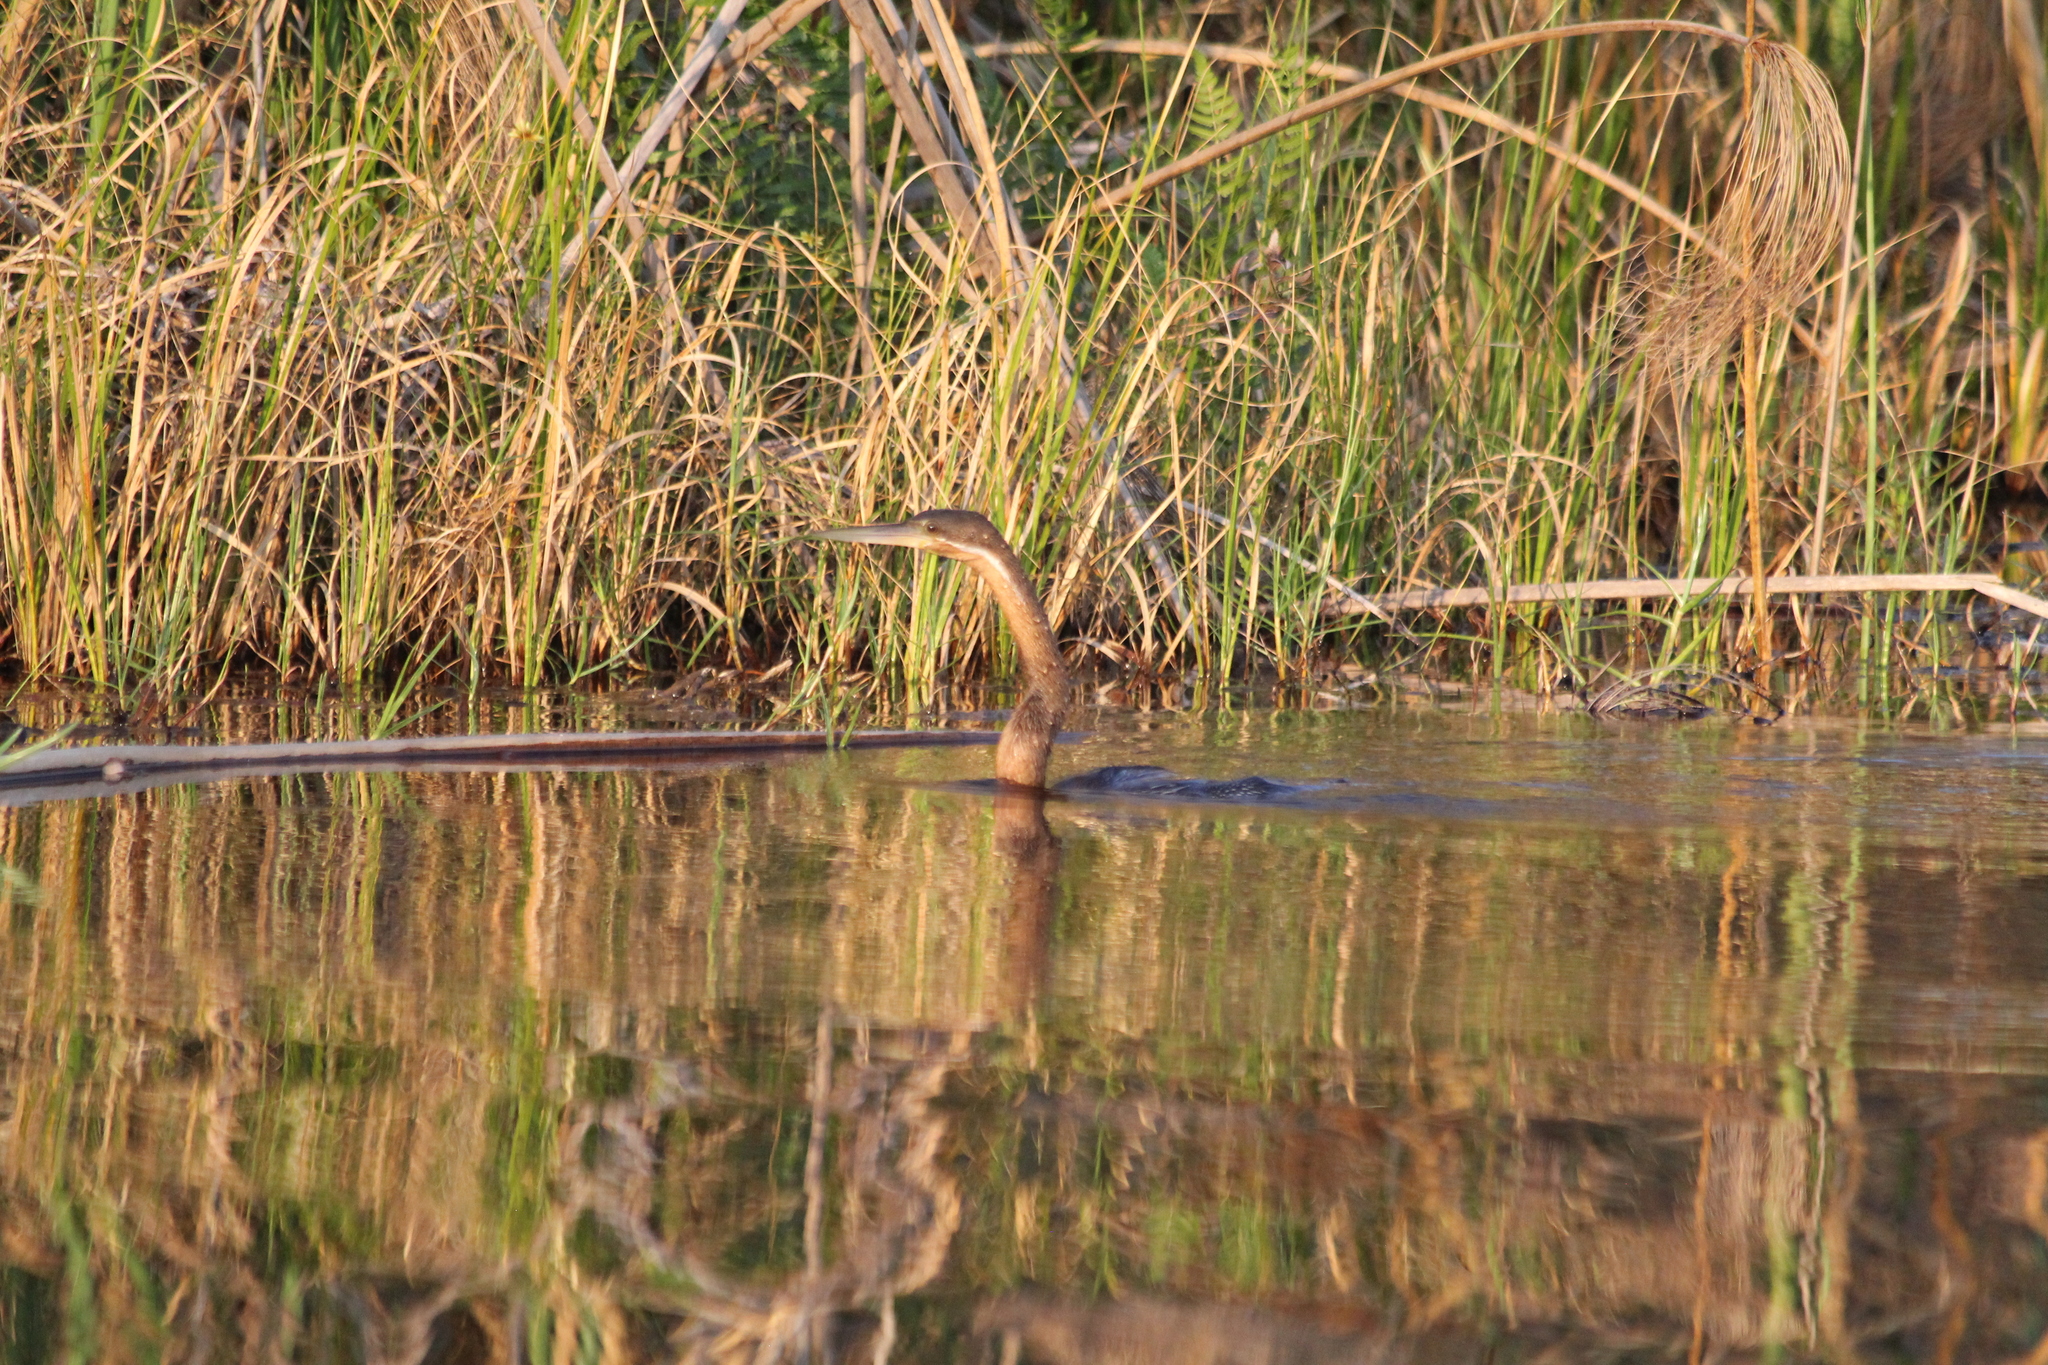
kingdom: Animalia
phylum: Chordata
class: Aves
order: Suliformes
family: Anhingidae
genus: Anhinga
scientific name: Anhinga rufa
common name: African darter
